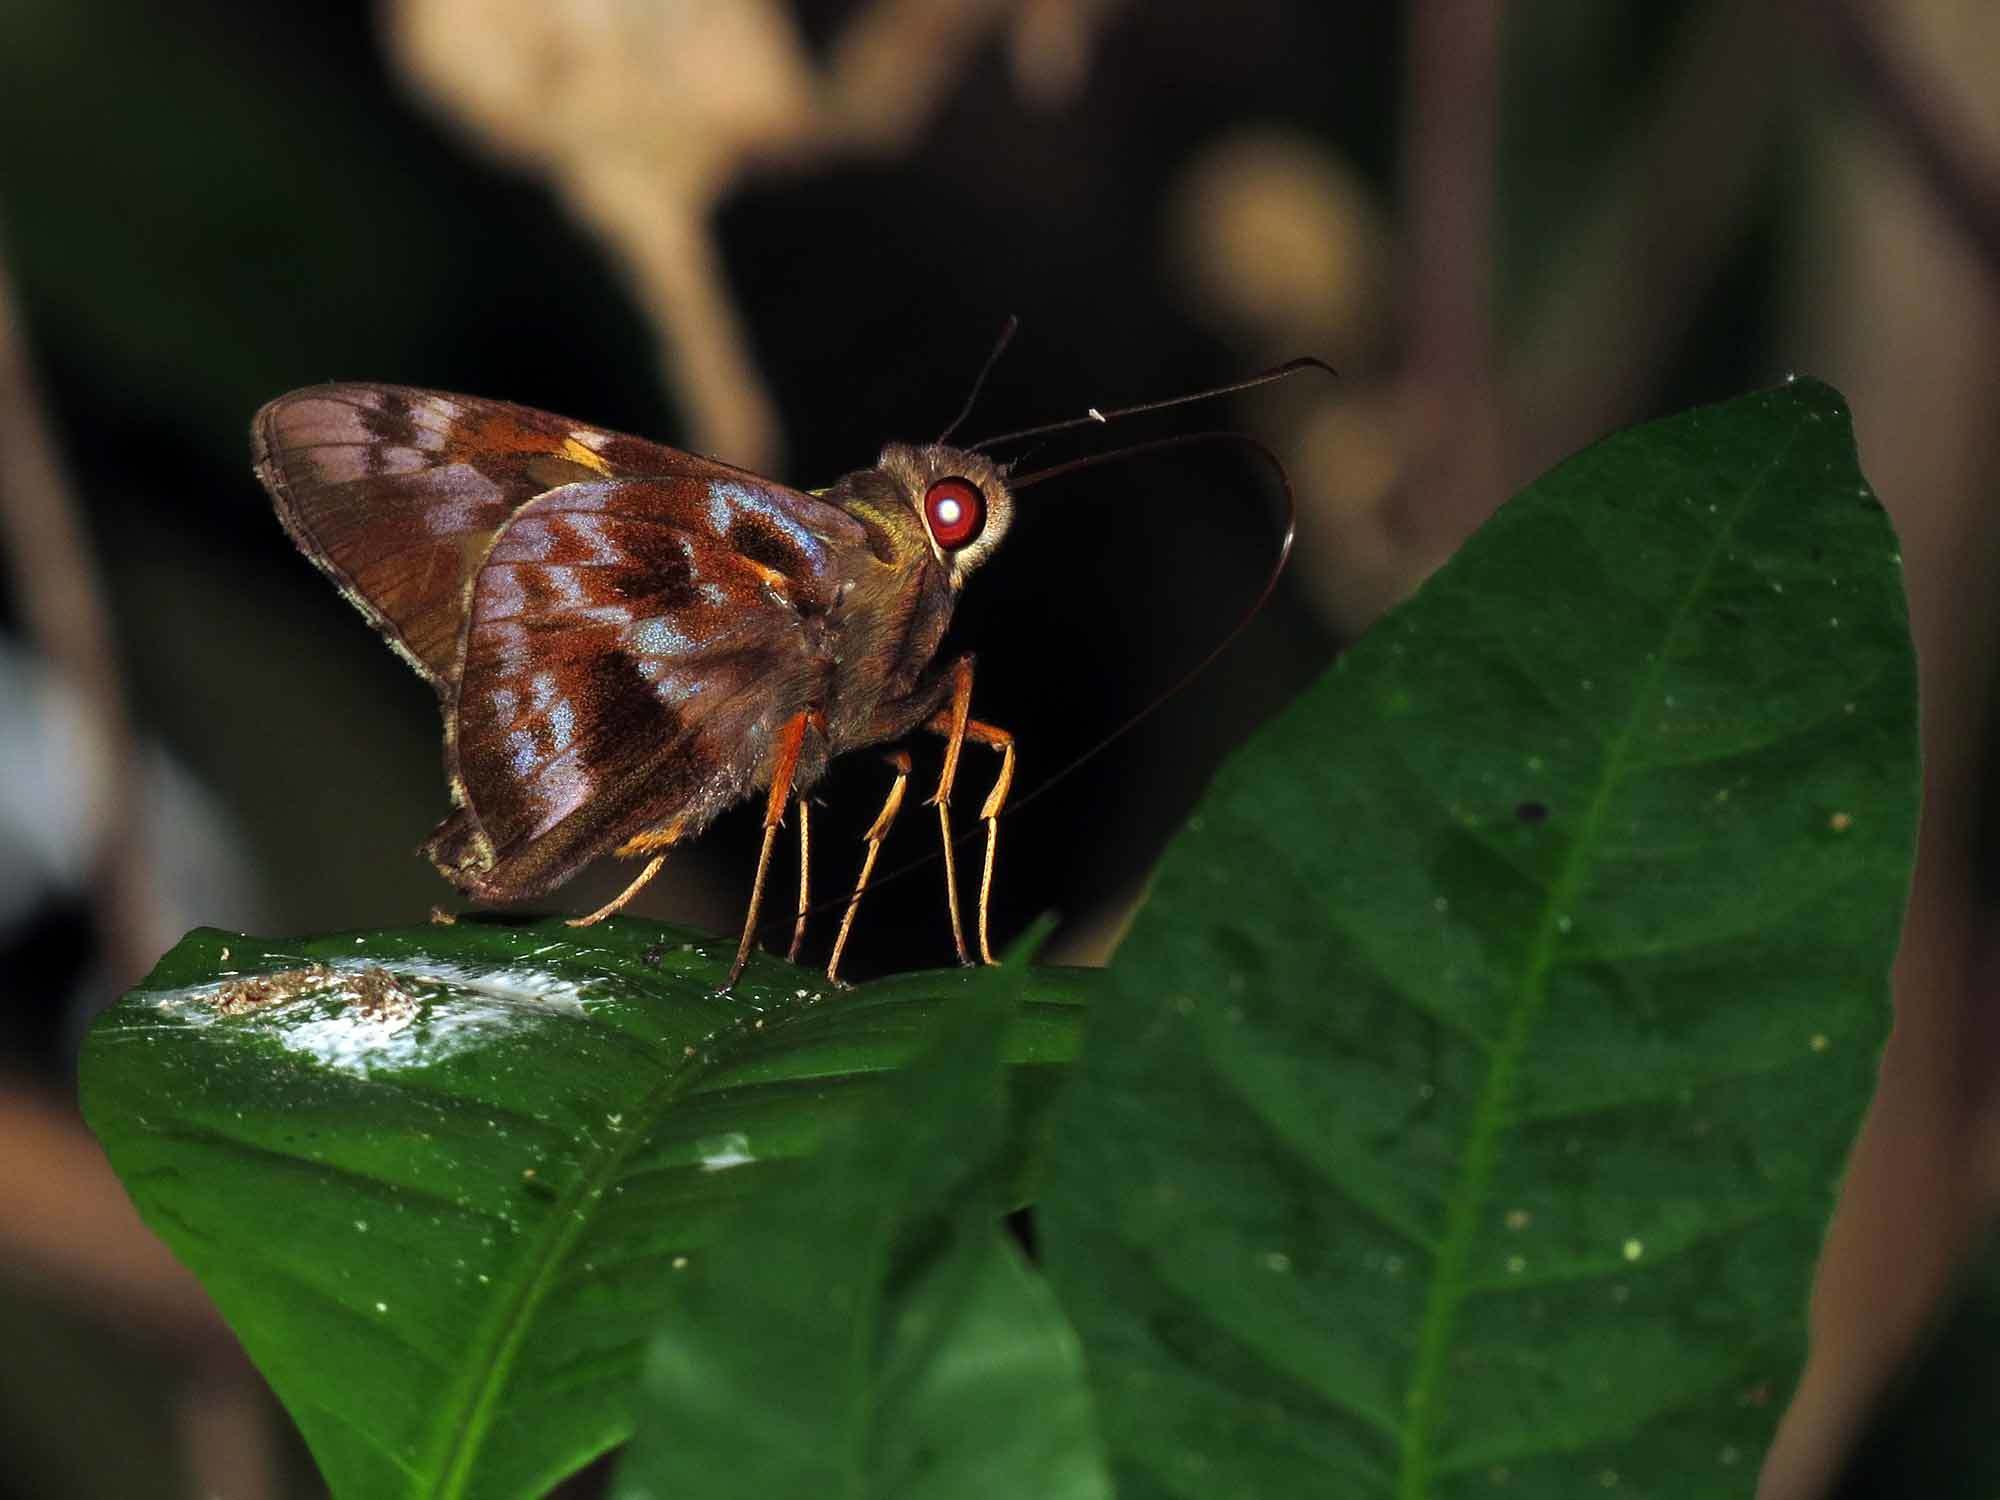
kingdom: Animalia
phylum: Arthropoda
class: Insecta
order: Lepidoptera
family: Hesperiidae
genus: Perichares
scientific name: Perichares philetes
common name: Green-backed ruby-eye
